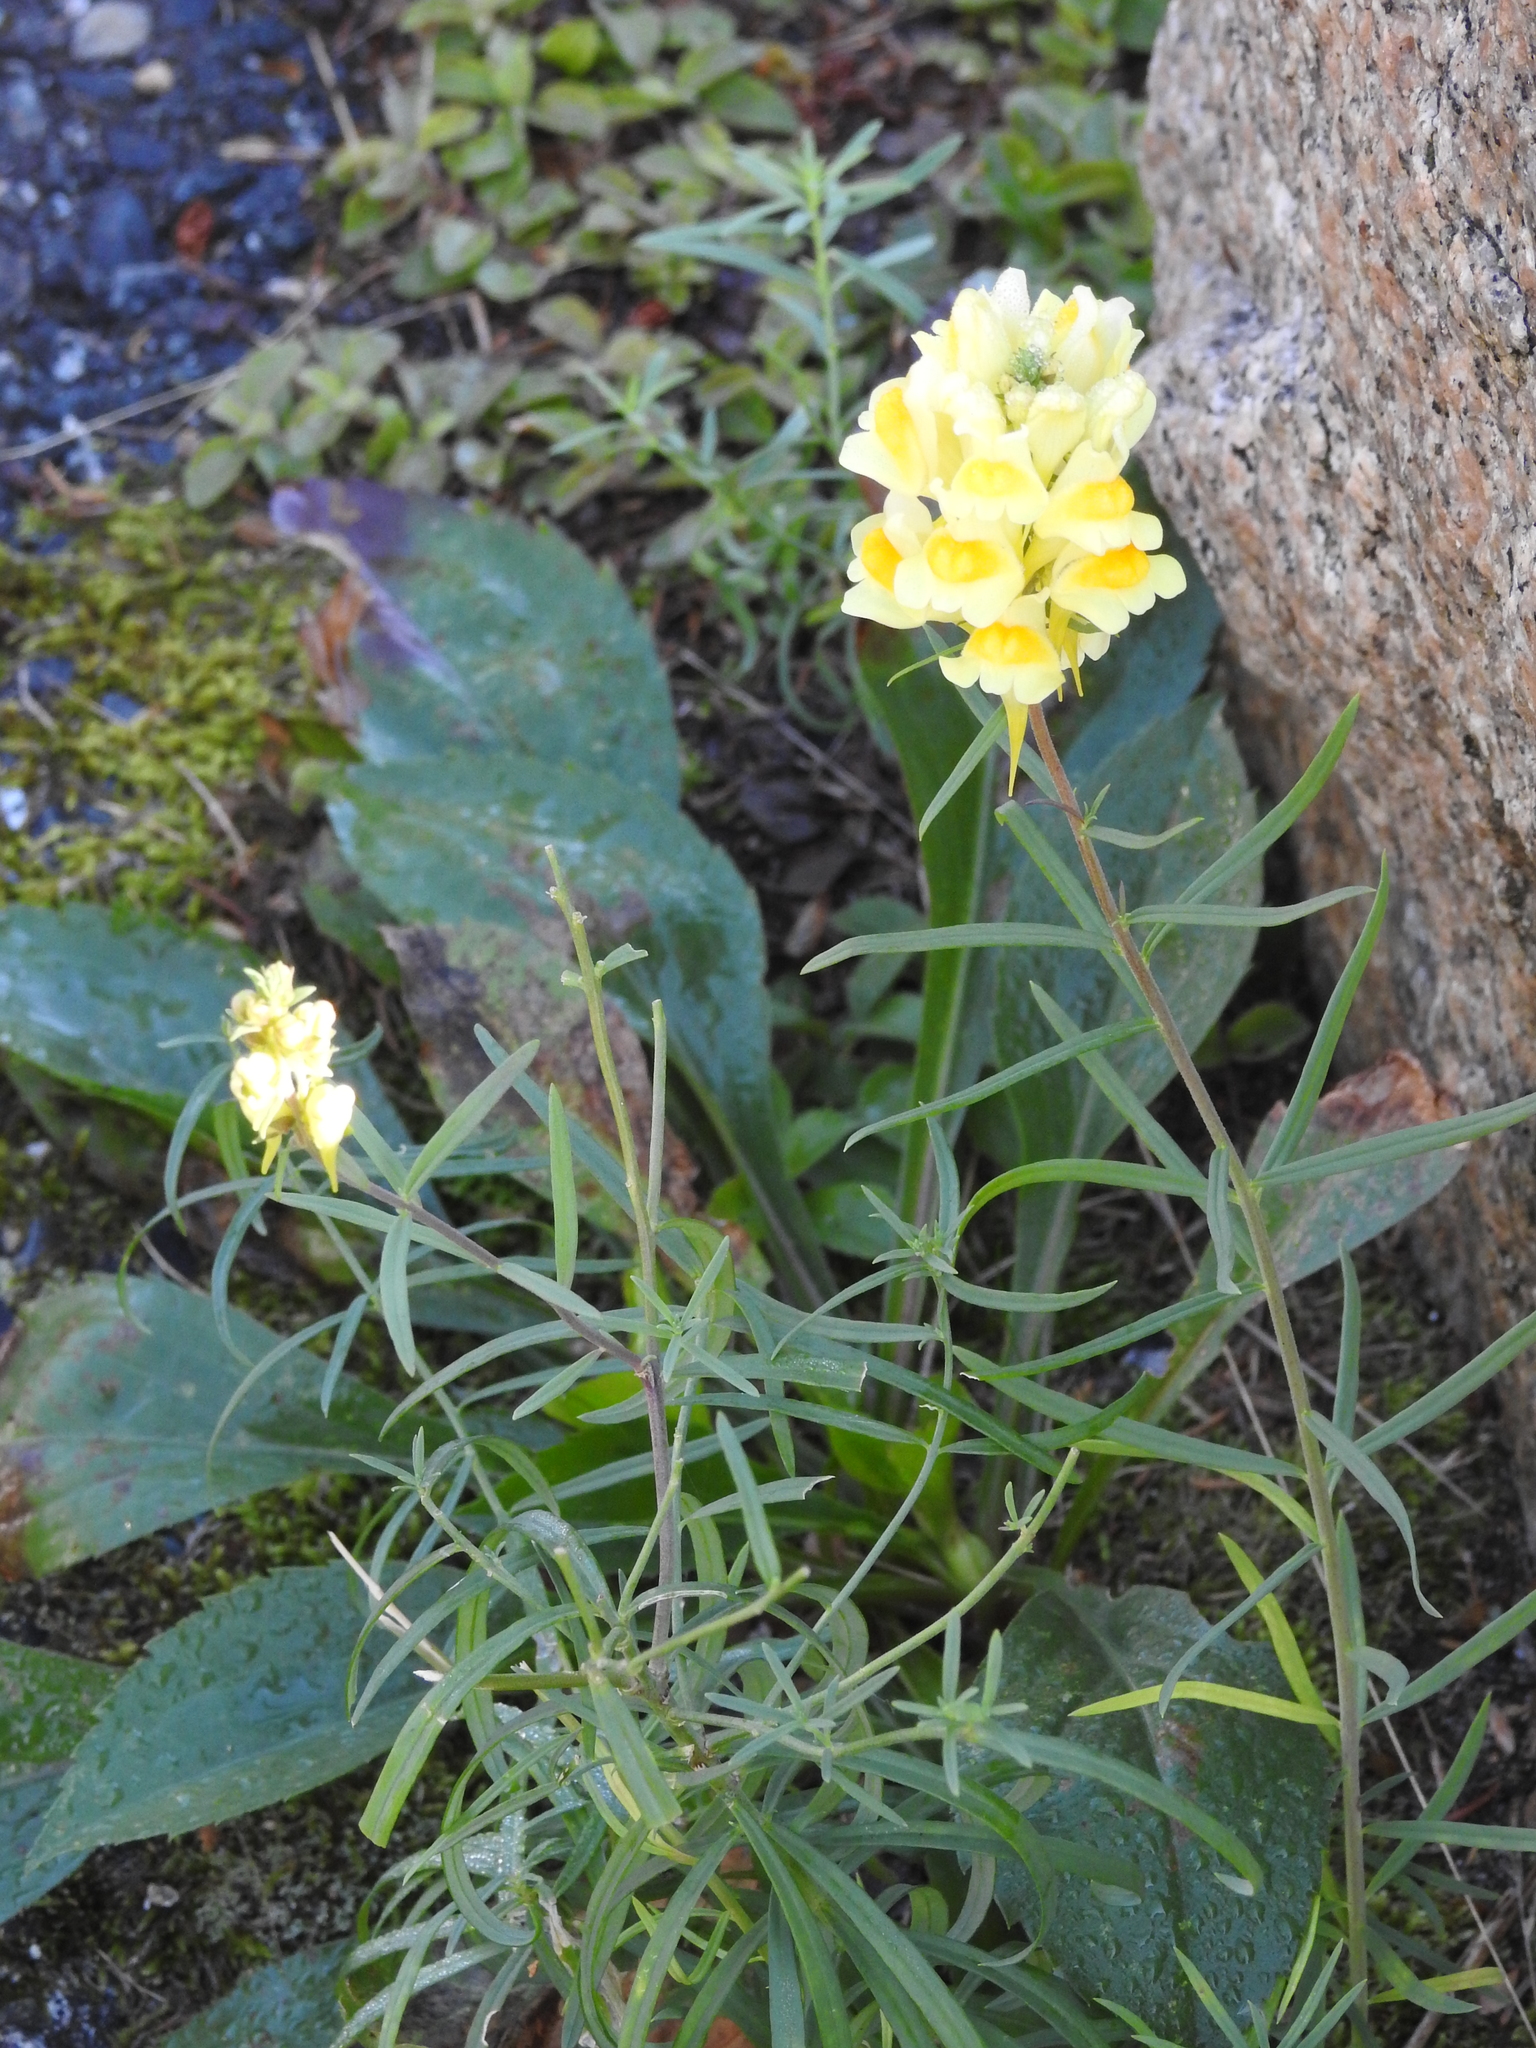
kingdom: Plantae
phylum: Tracheophyta
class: Magnoliopsida
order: Lamiales
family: Plantaginaceae
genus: Linaria
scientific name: Linaria vulgaris
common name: Butter and eggs
